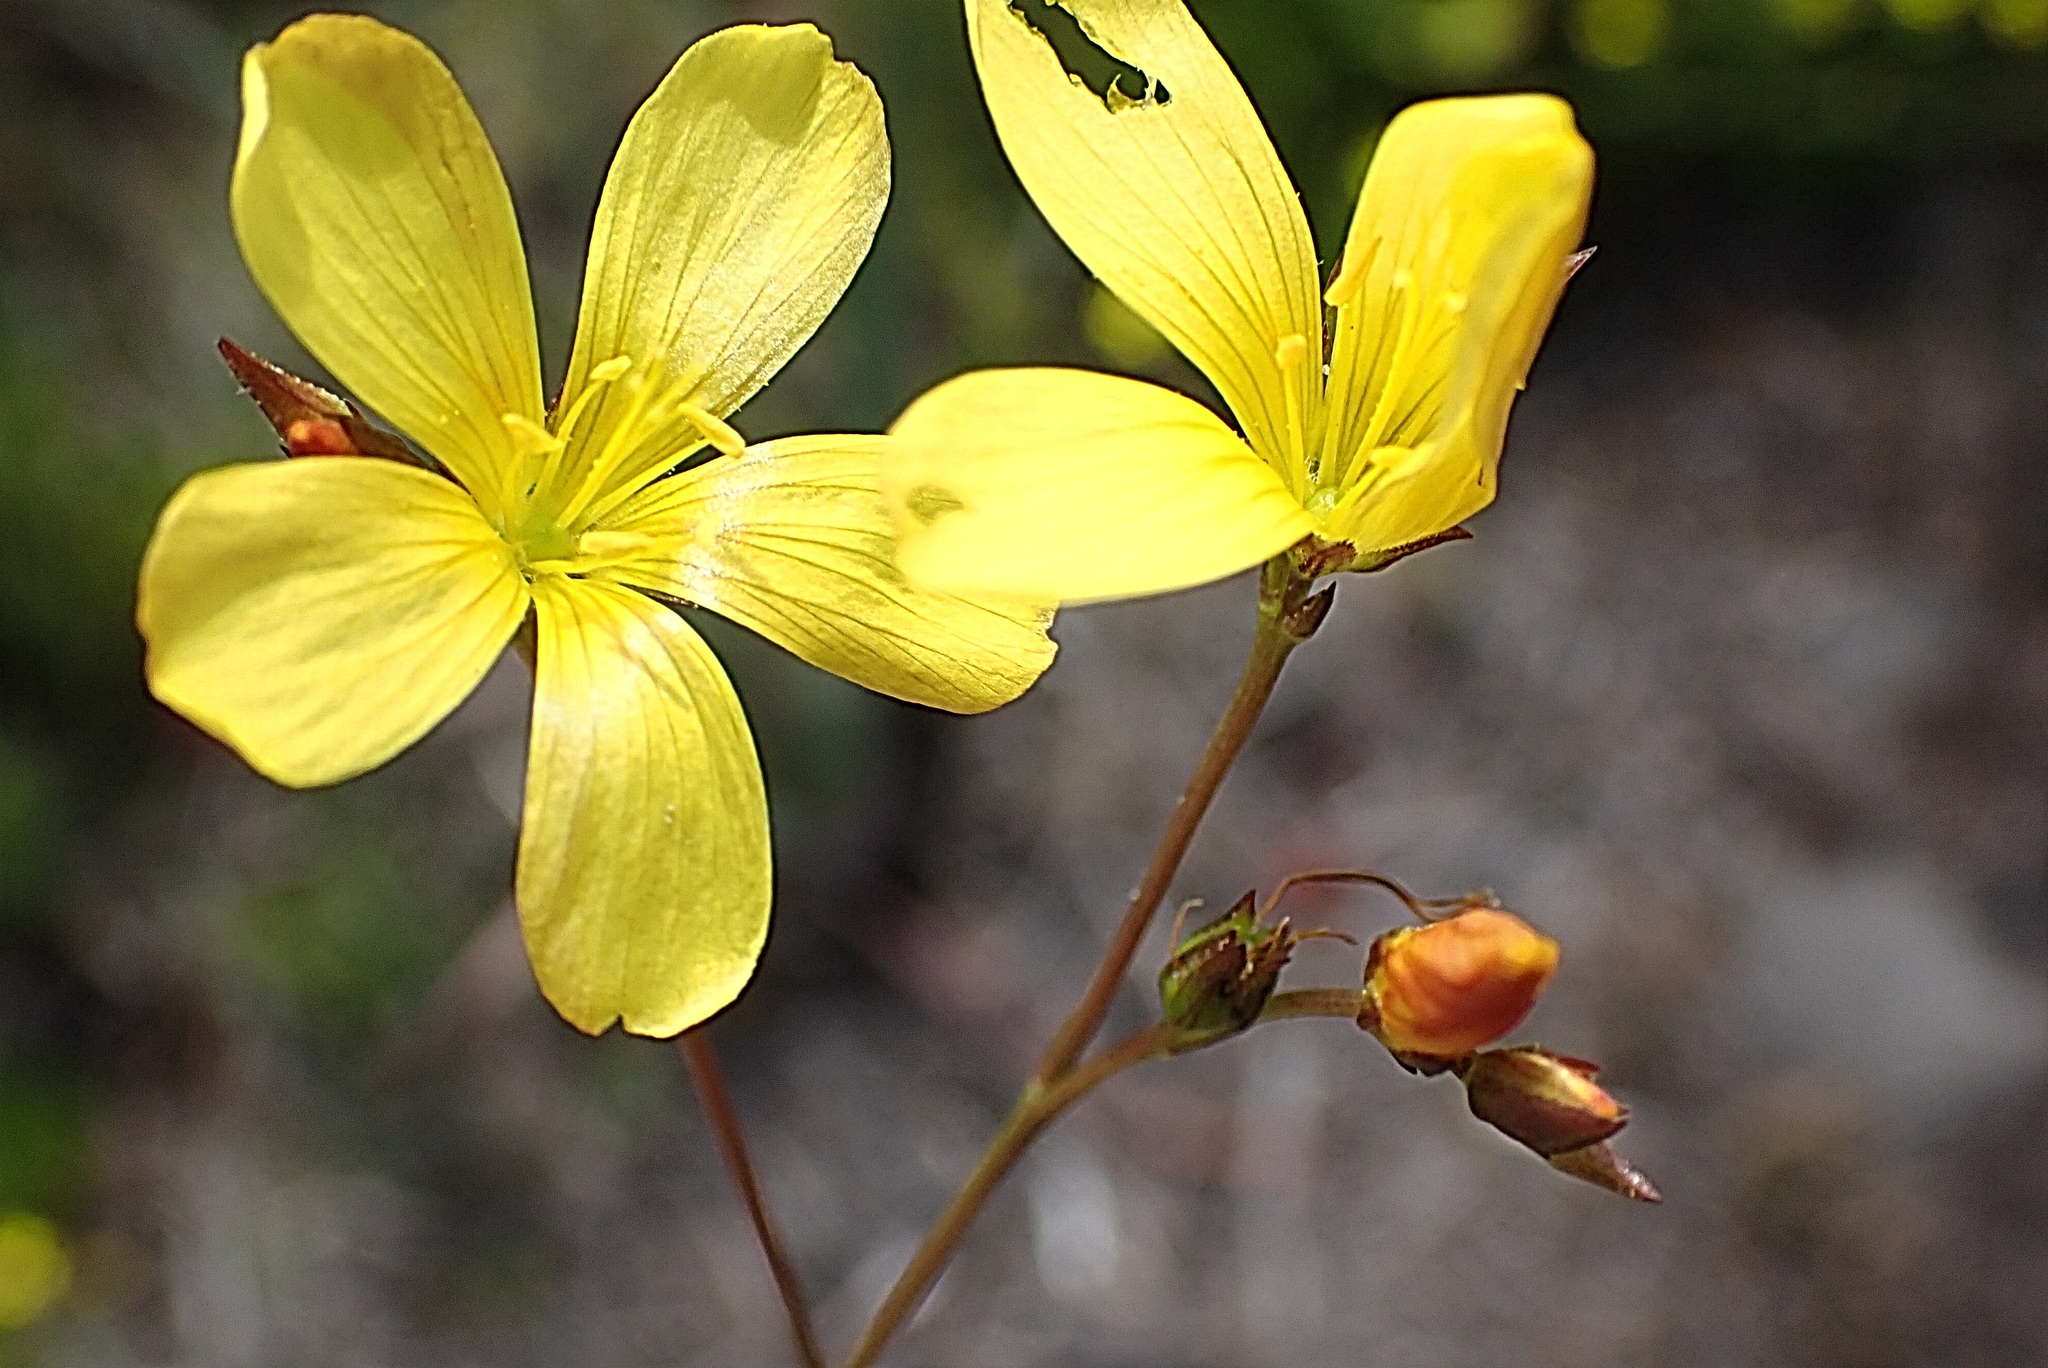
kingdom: Plantae
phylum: Tracheophyta
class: Magnoliopsida
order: Malpighiales
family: Linaceae
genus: Linum
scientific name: Linum africanum
